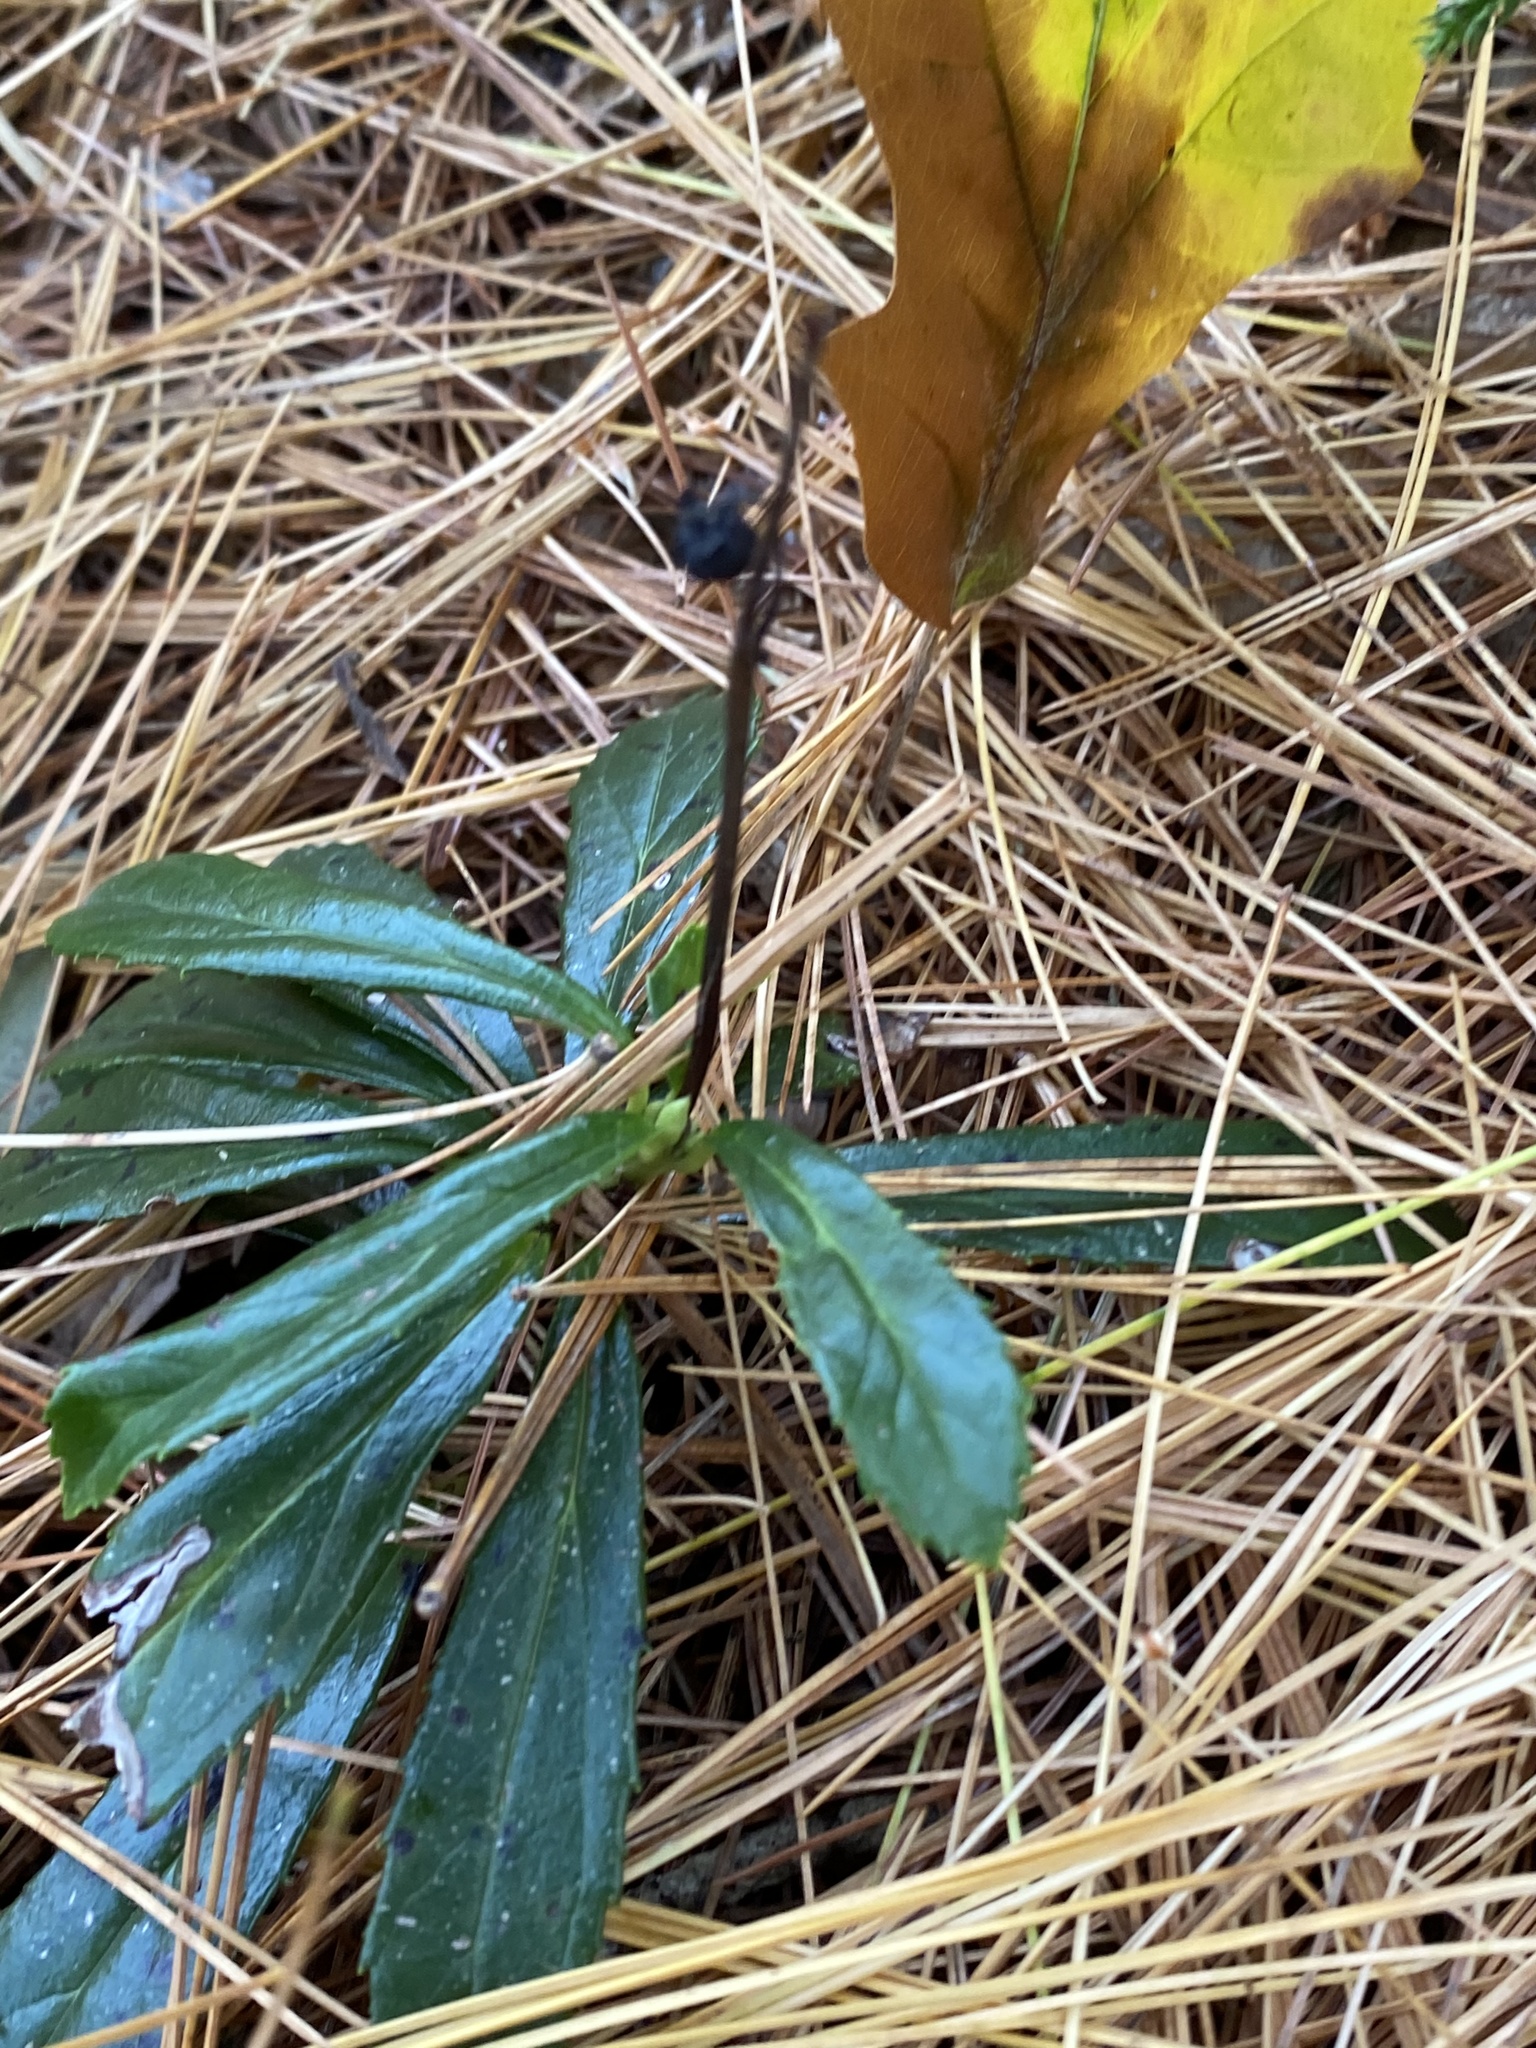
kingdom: Plantae
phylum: Tracheophyta
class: Magnoliopsida
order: Ericales
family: Ericaceae
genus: Chimaphila
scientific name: Chimaphila umbellata
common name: Pipsissewa
